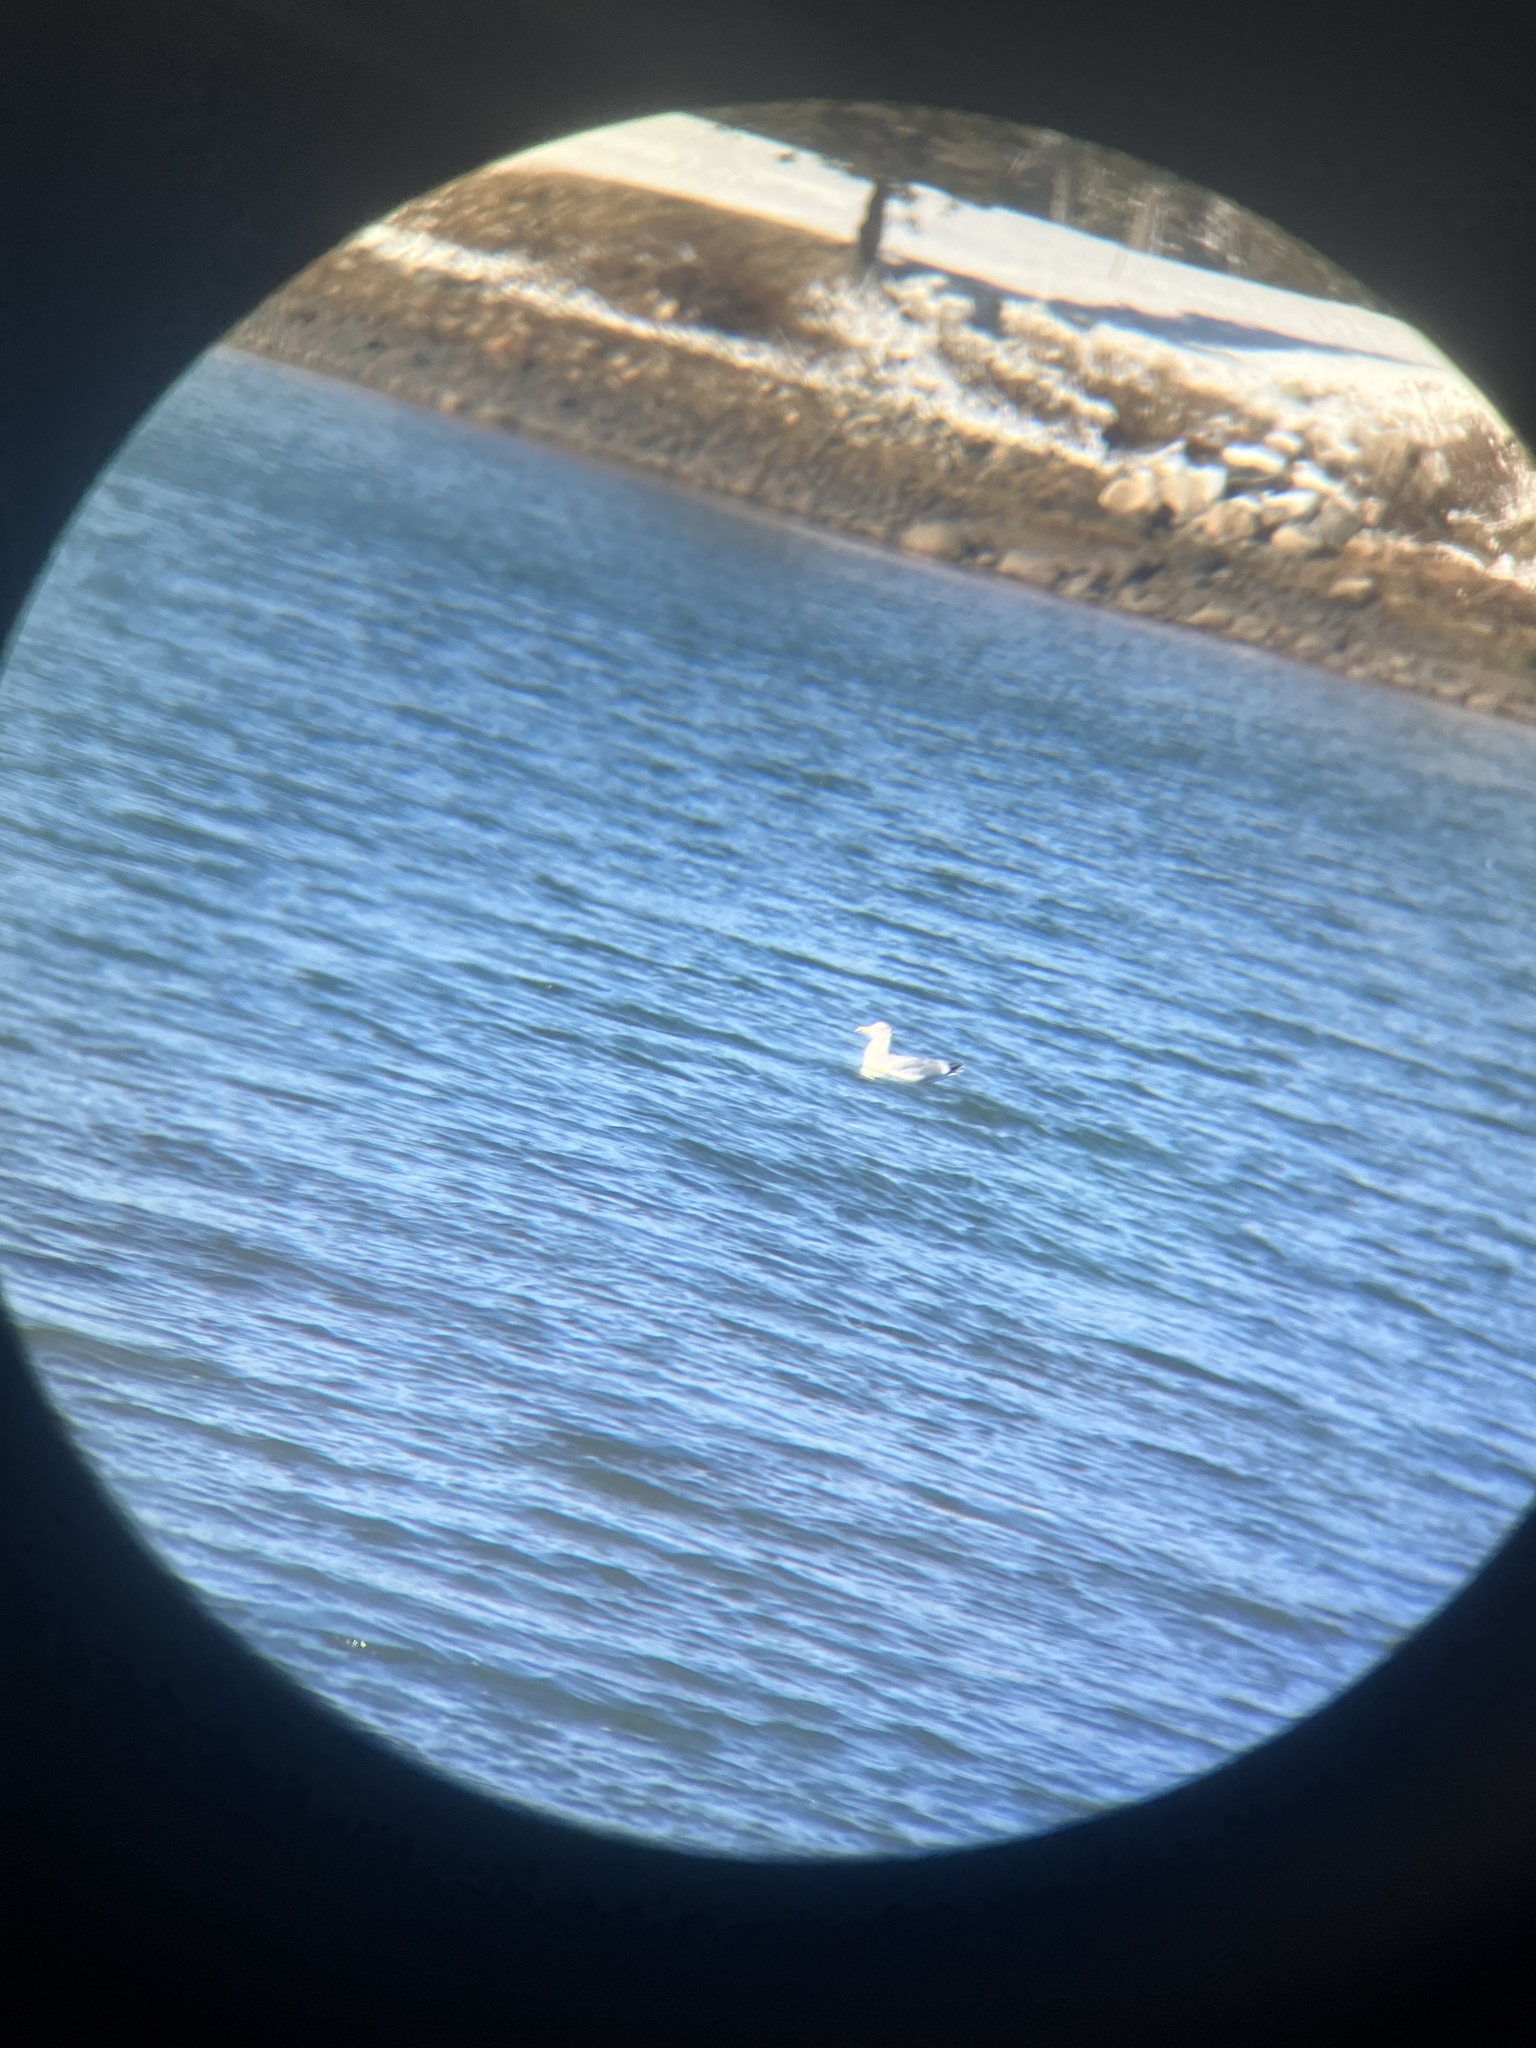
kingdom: Animalia
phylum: Chordata
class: Aves
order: Charadriiformes
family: Laridae
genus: Larus
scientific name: Larus argentatus
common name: Herring gull
